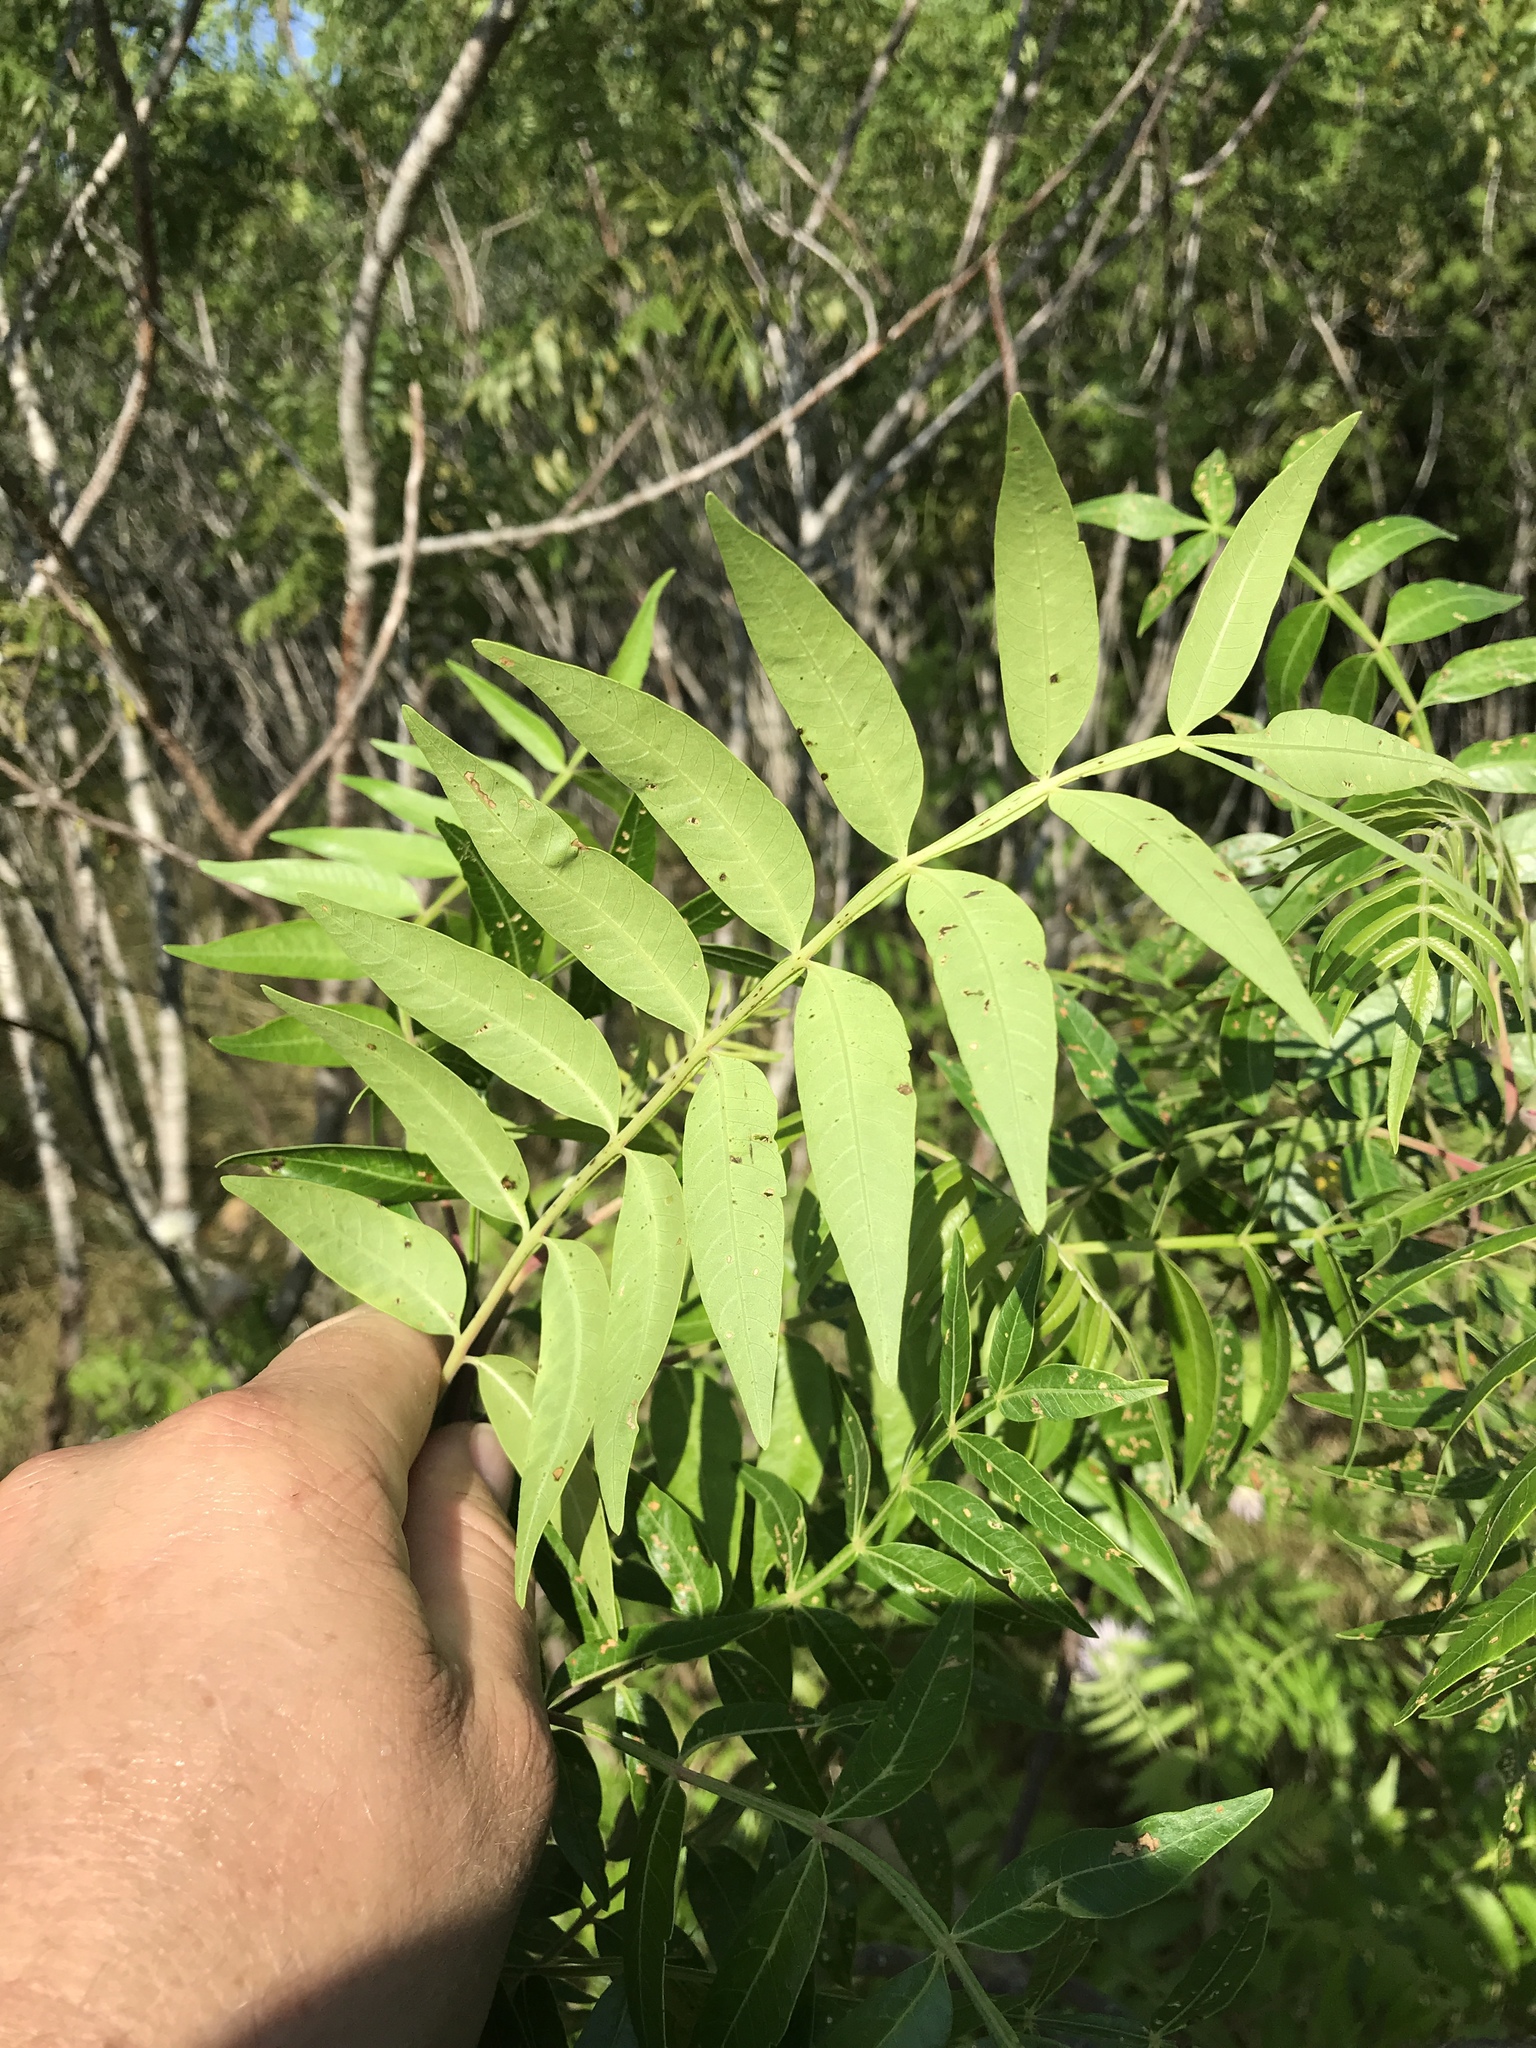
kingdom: Plantae
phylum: Tracheophyta
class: Magnoliopsida
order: Sapindales
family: Anacardiaceae
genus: Rhus
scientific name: Rhus lanceolata
